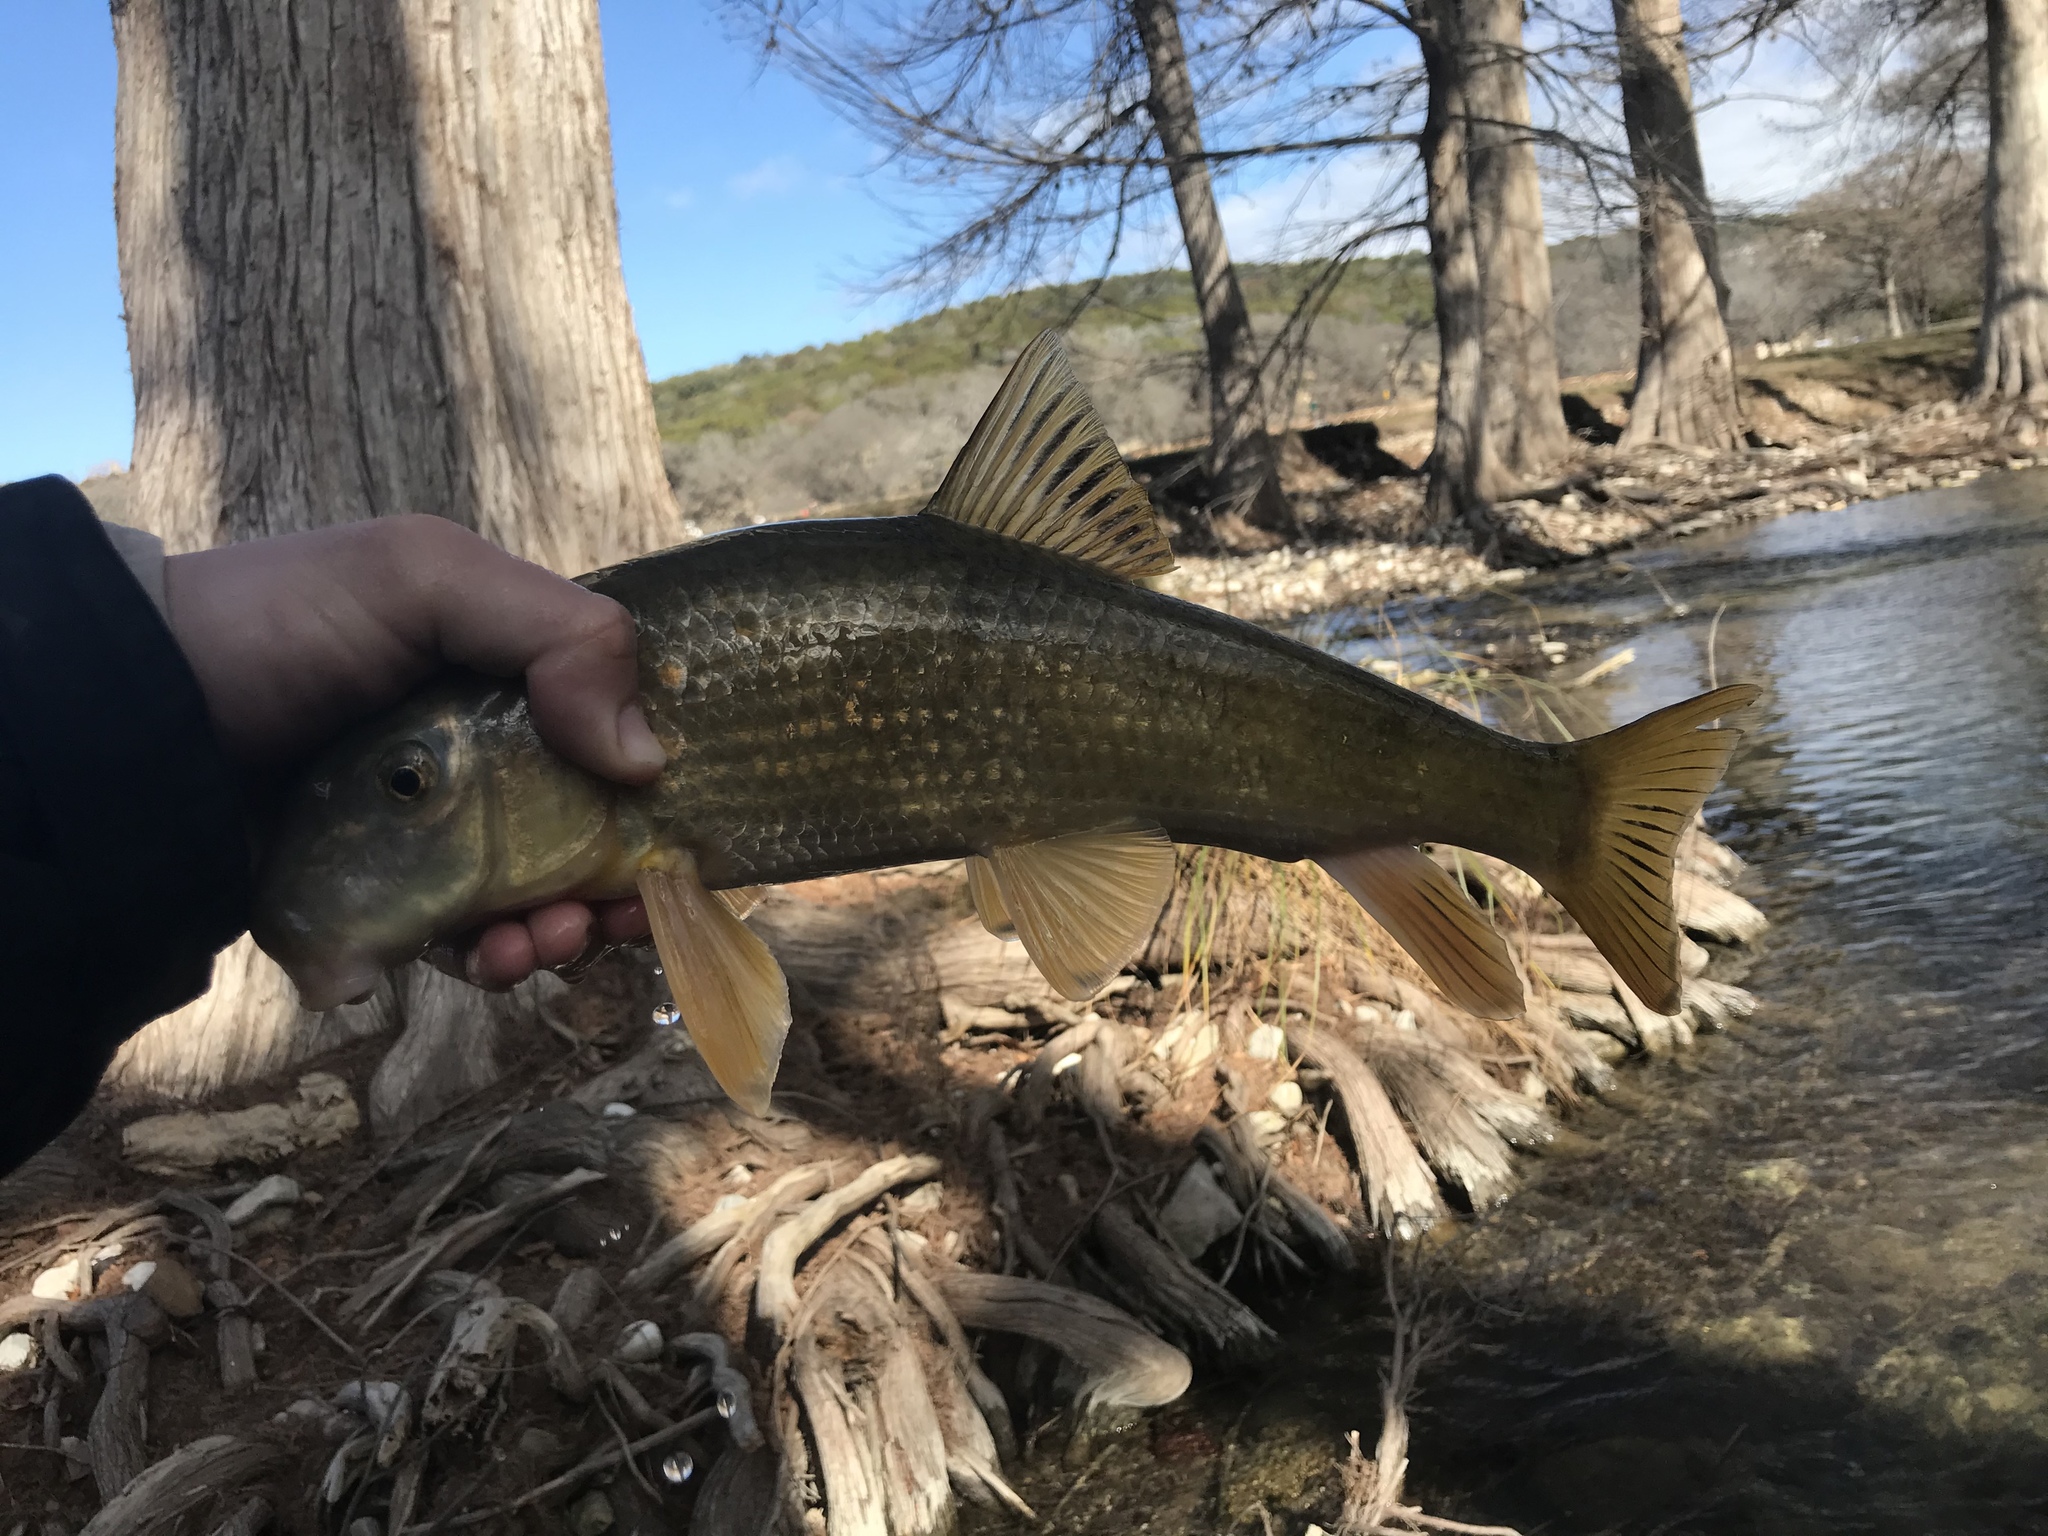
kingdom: Animalia
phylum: Chordata
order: Cypriniformes
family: Catostomidae
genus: Moxostoma
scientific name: Moxostoma congestum
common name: Gray redhorse
